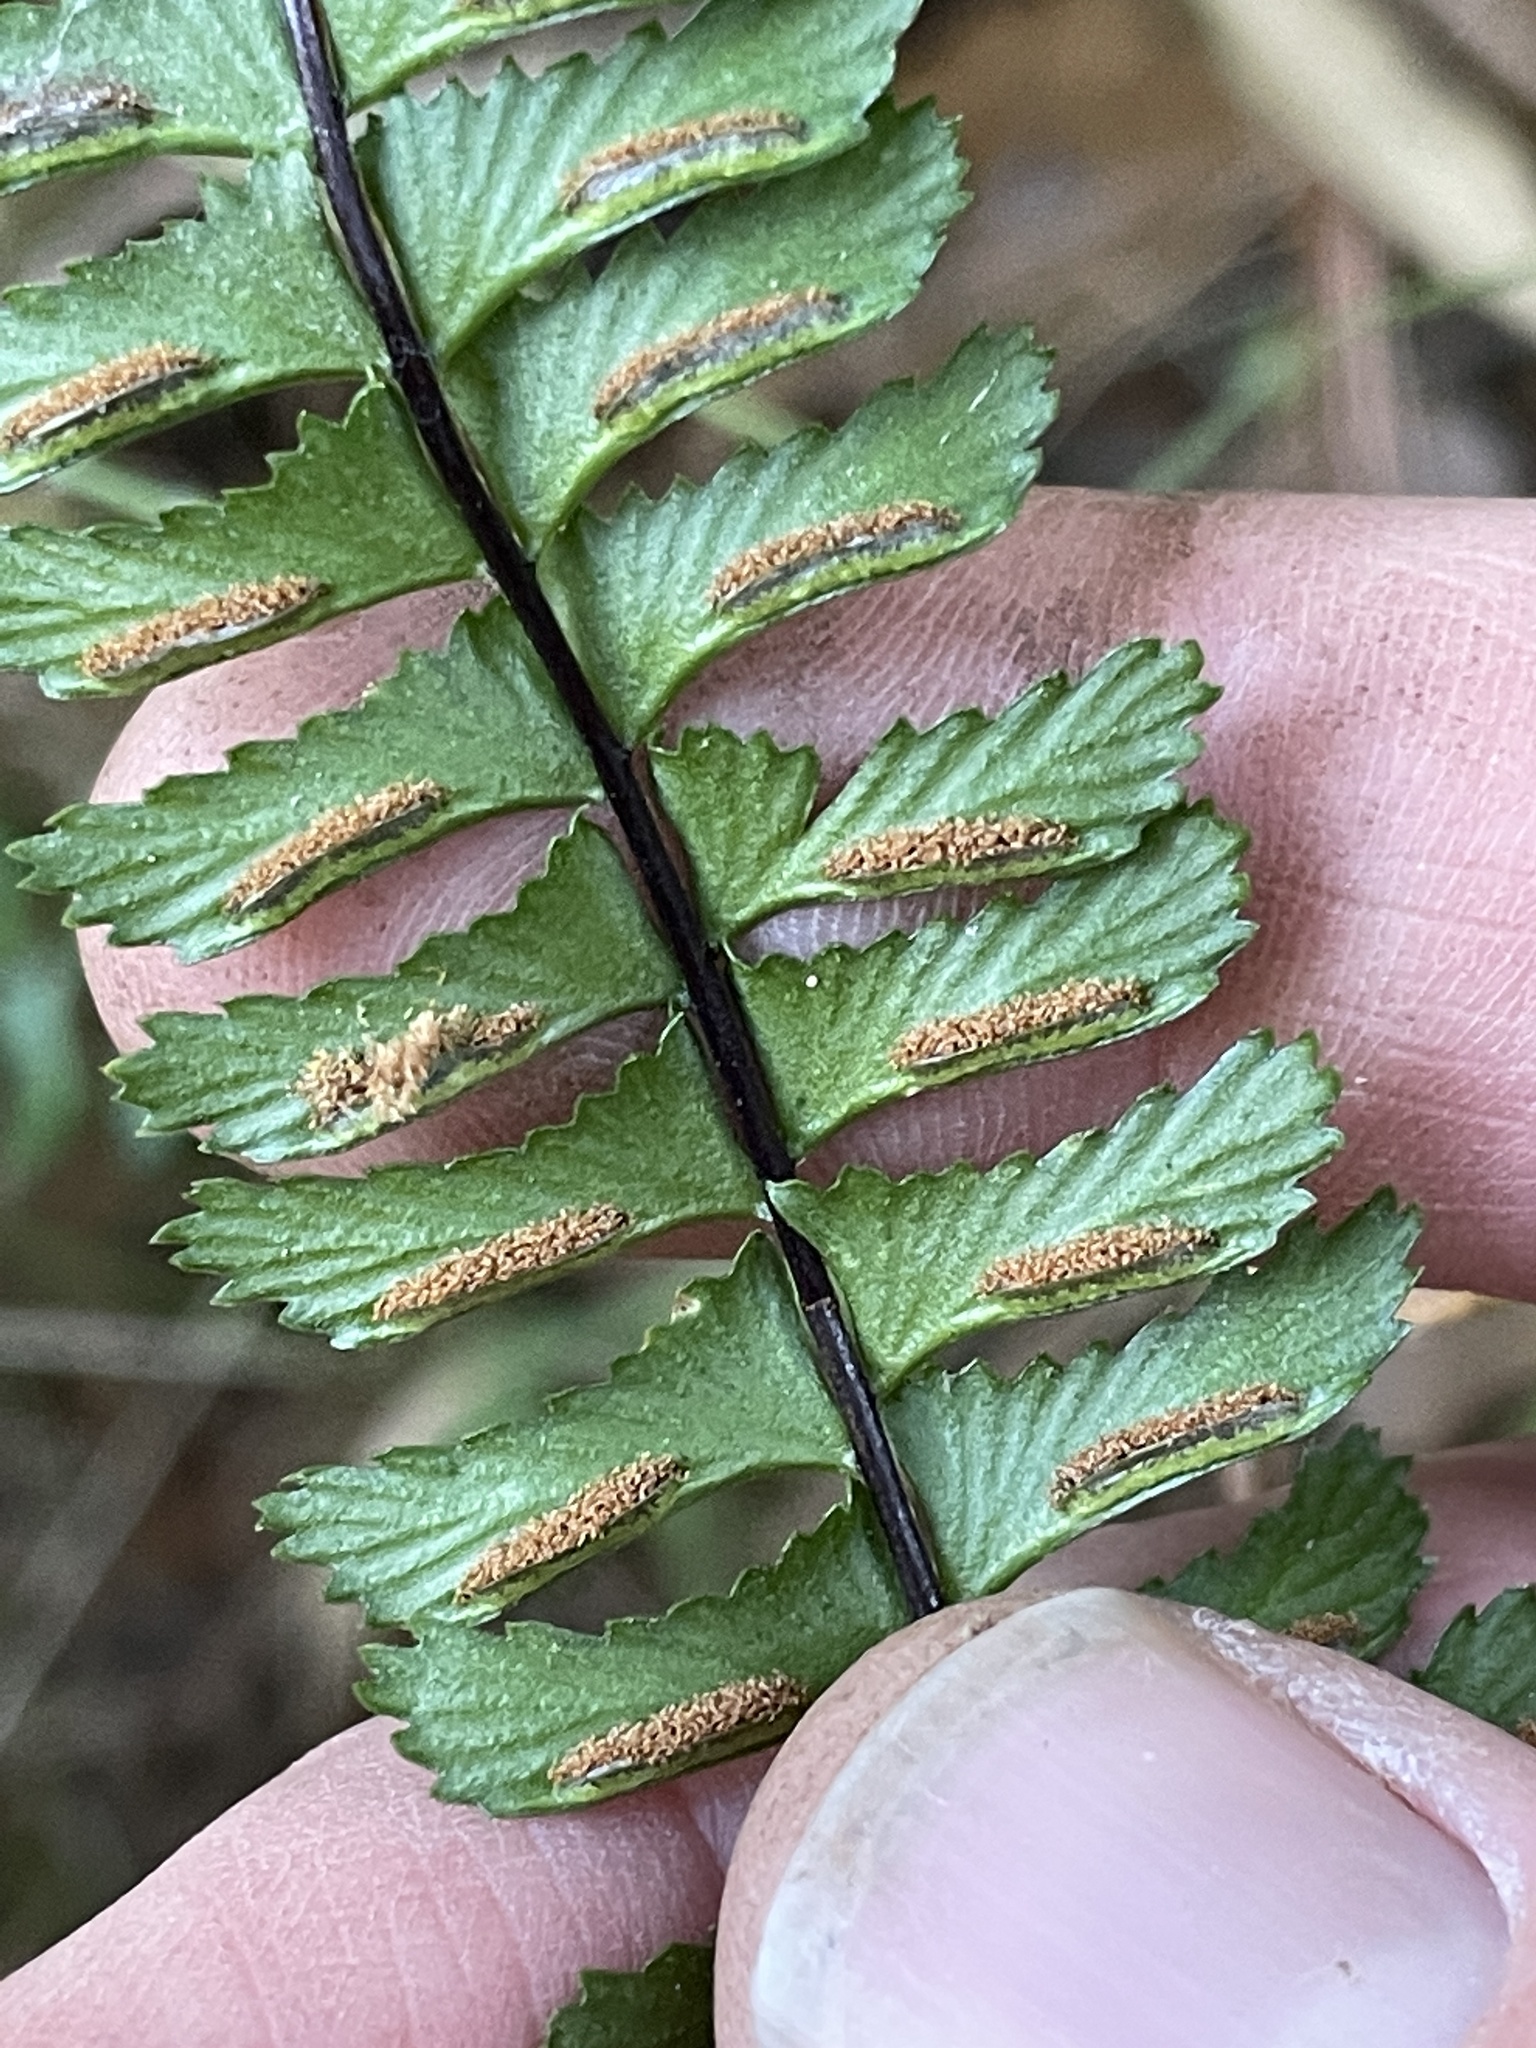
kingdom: Plantae
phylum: Tracheophyta
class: Polypodiopsida
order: Polypodiales
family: Aspleniaceae
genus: Asplenium
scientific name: Asplenium monanthes
